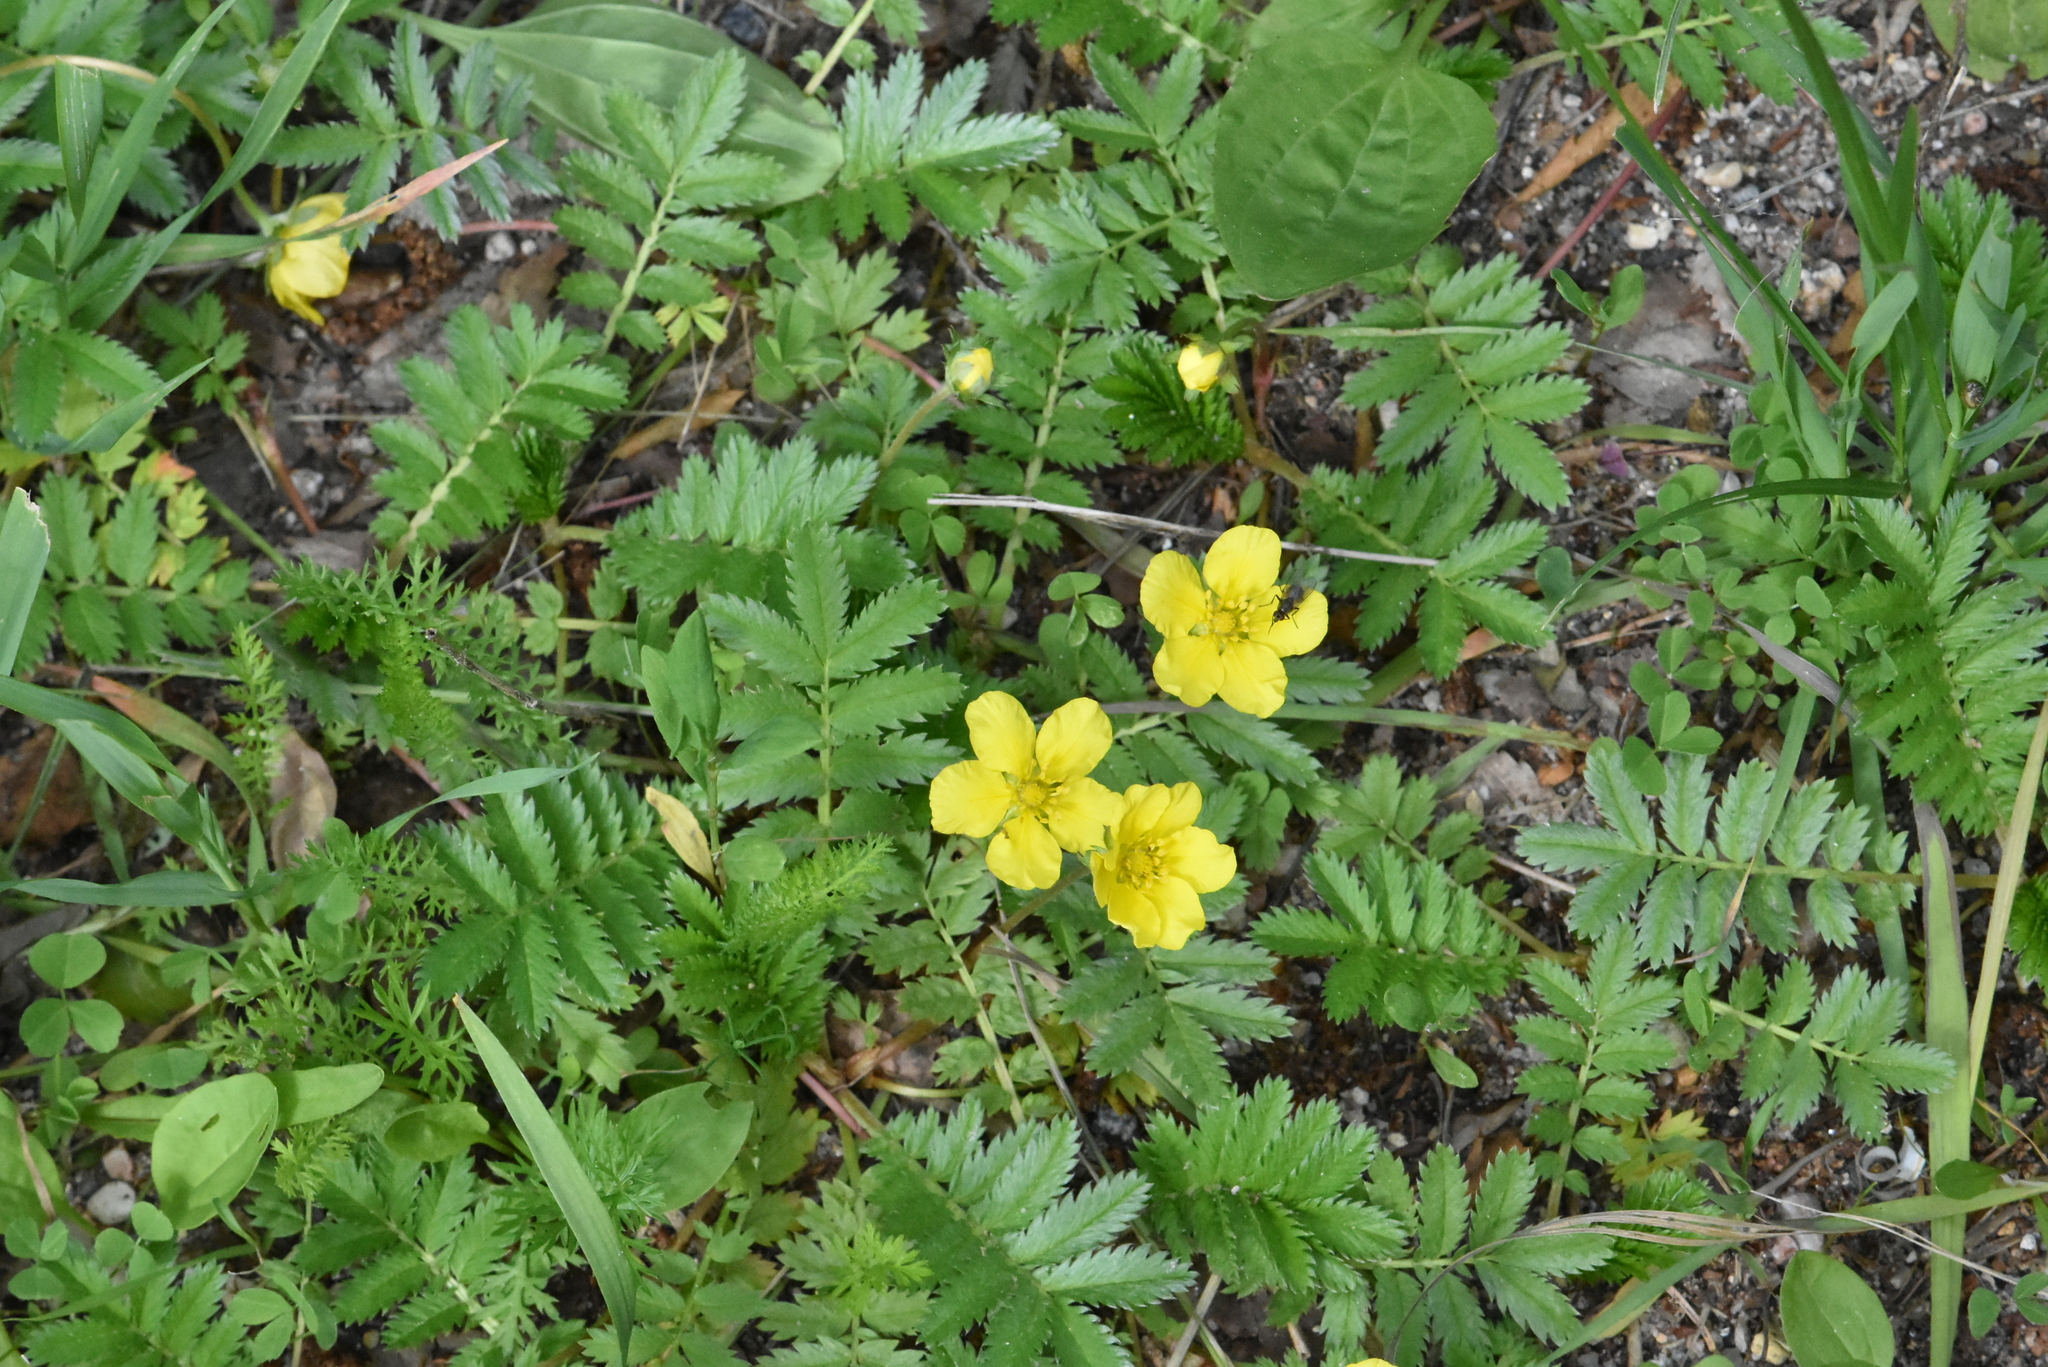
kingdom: Plantae
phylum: Tracheophyta
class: Magnoliopsida
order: Rosales
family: Rosaceae
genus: Argentina
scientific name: Argentina anserina
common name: Common silverweed
